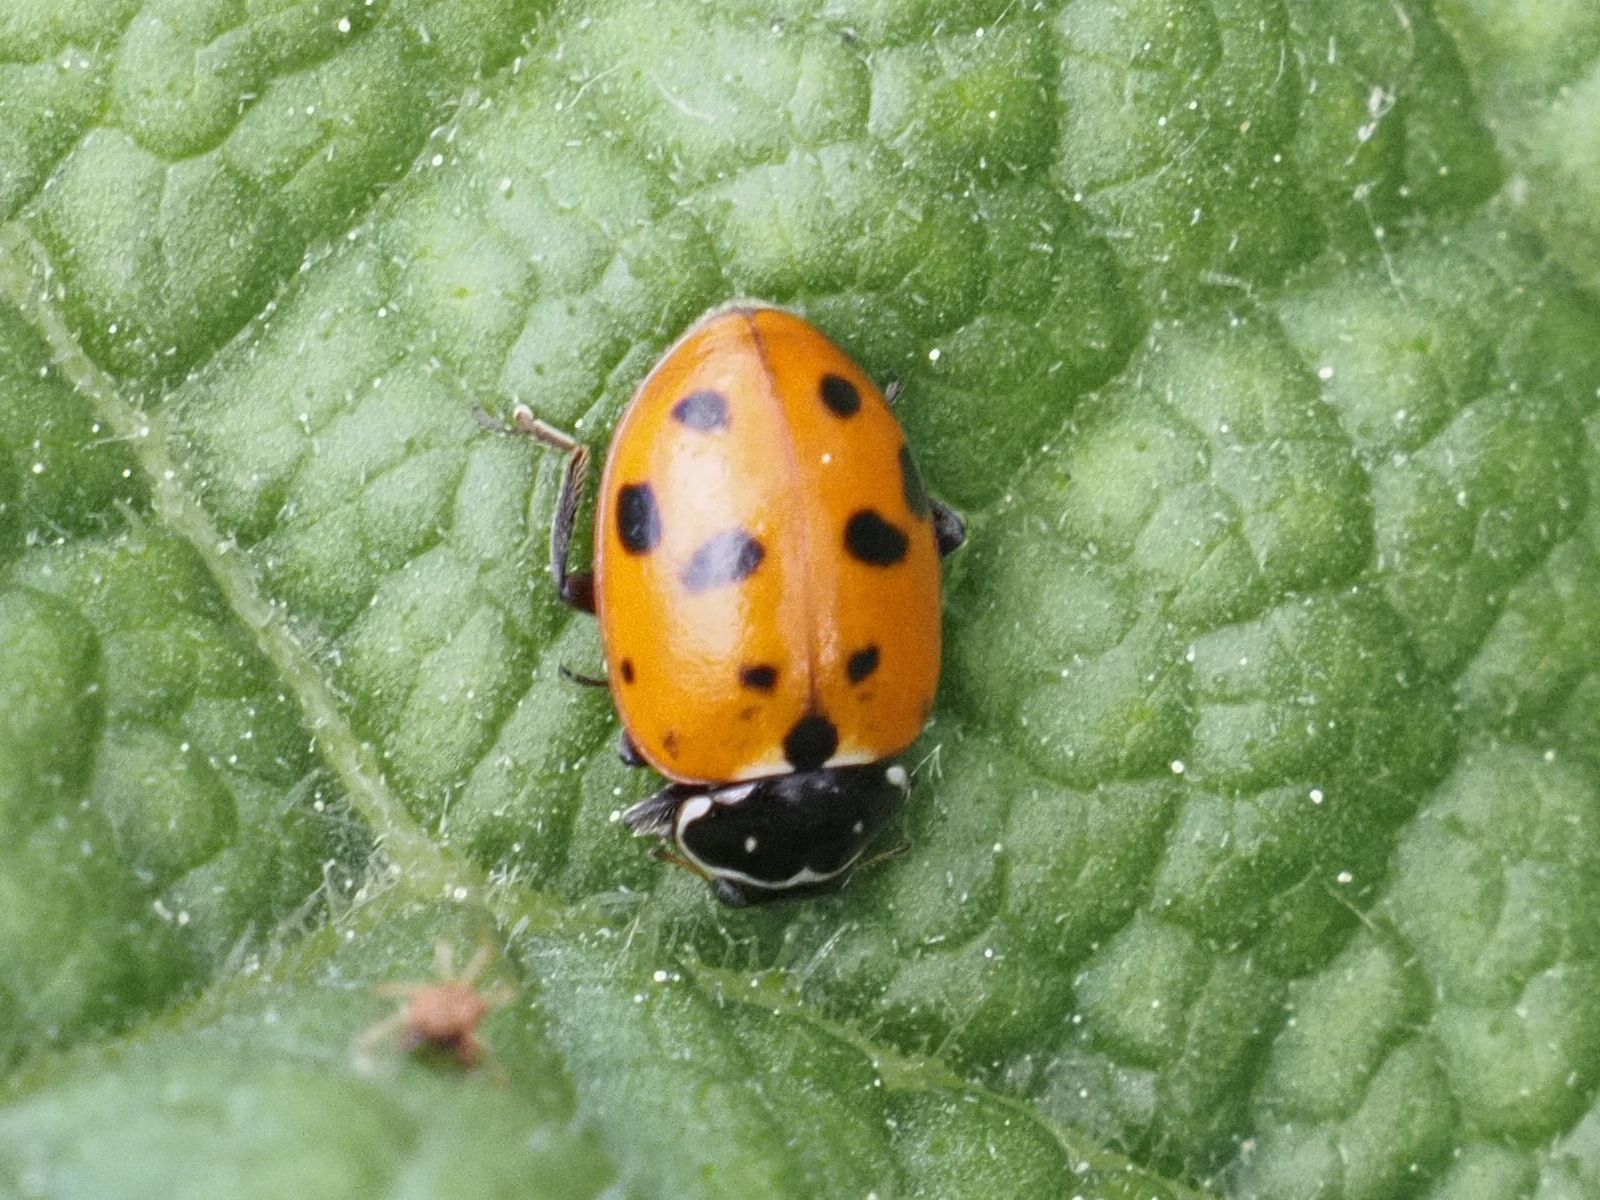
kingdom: Animalia
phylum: Arthropoda
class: Insecta
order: Coleoptera
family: Coccinellidae
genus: Hippodamia
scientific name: Hippodamia variegata
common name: Ladybird beetle
